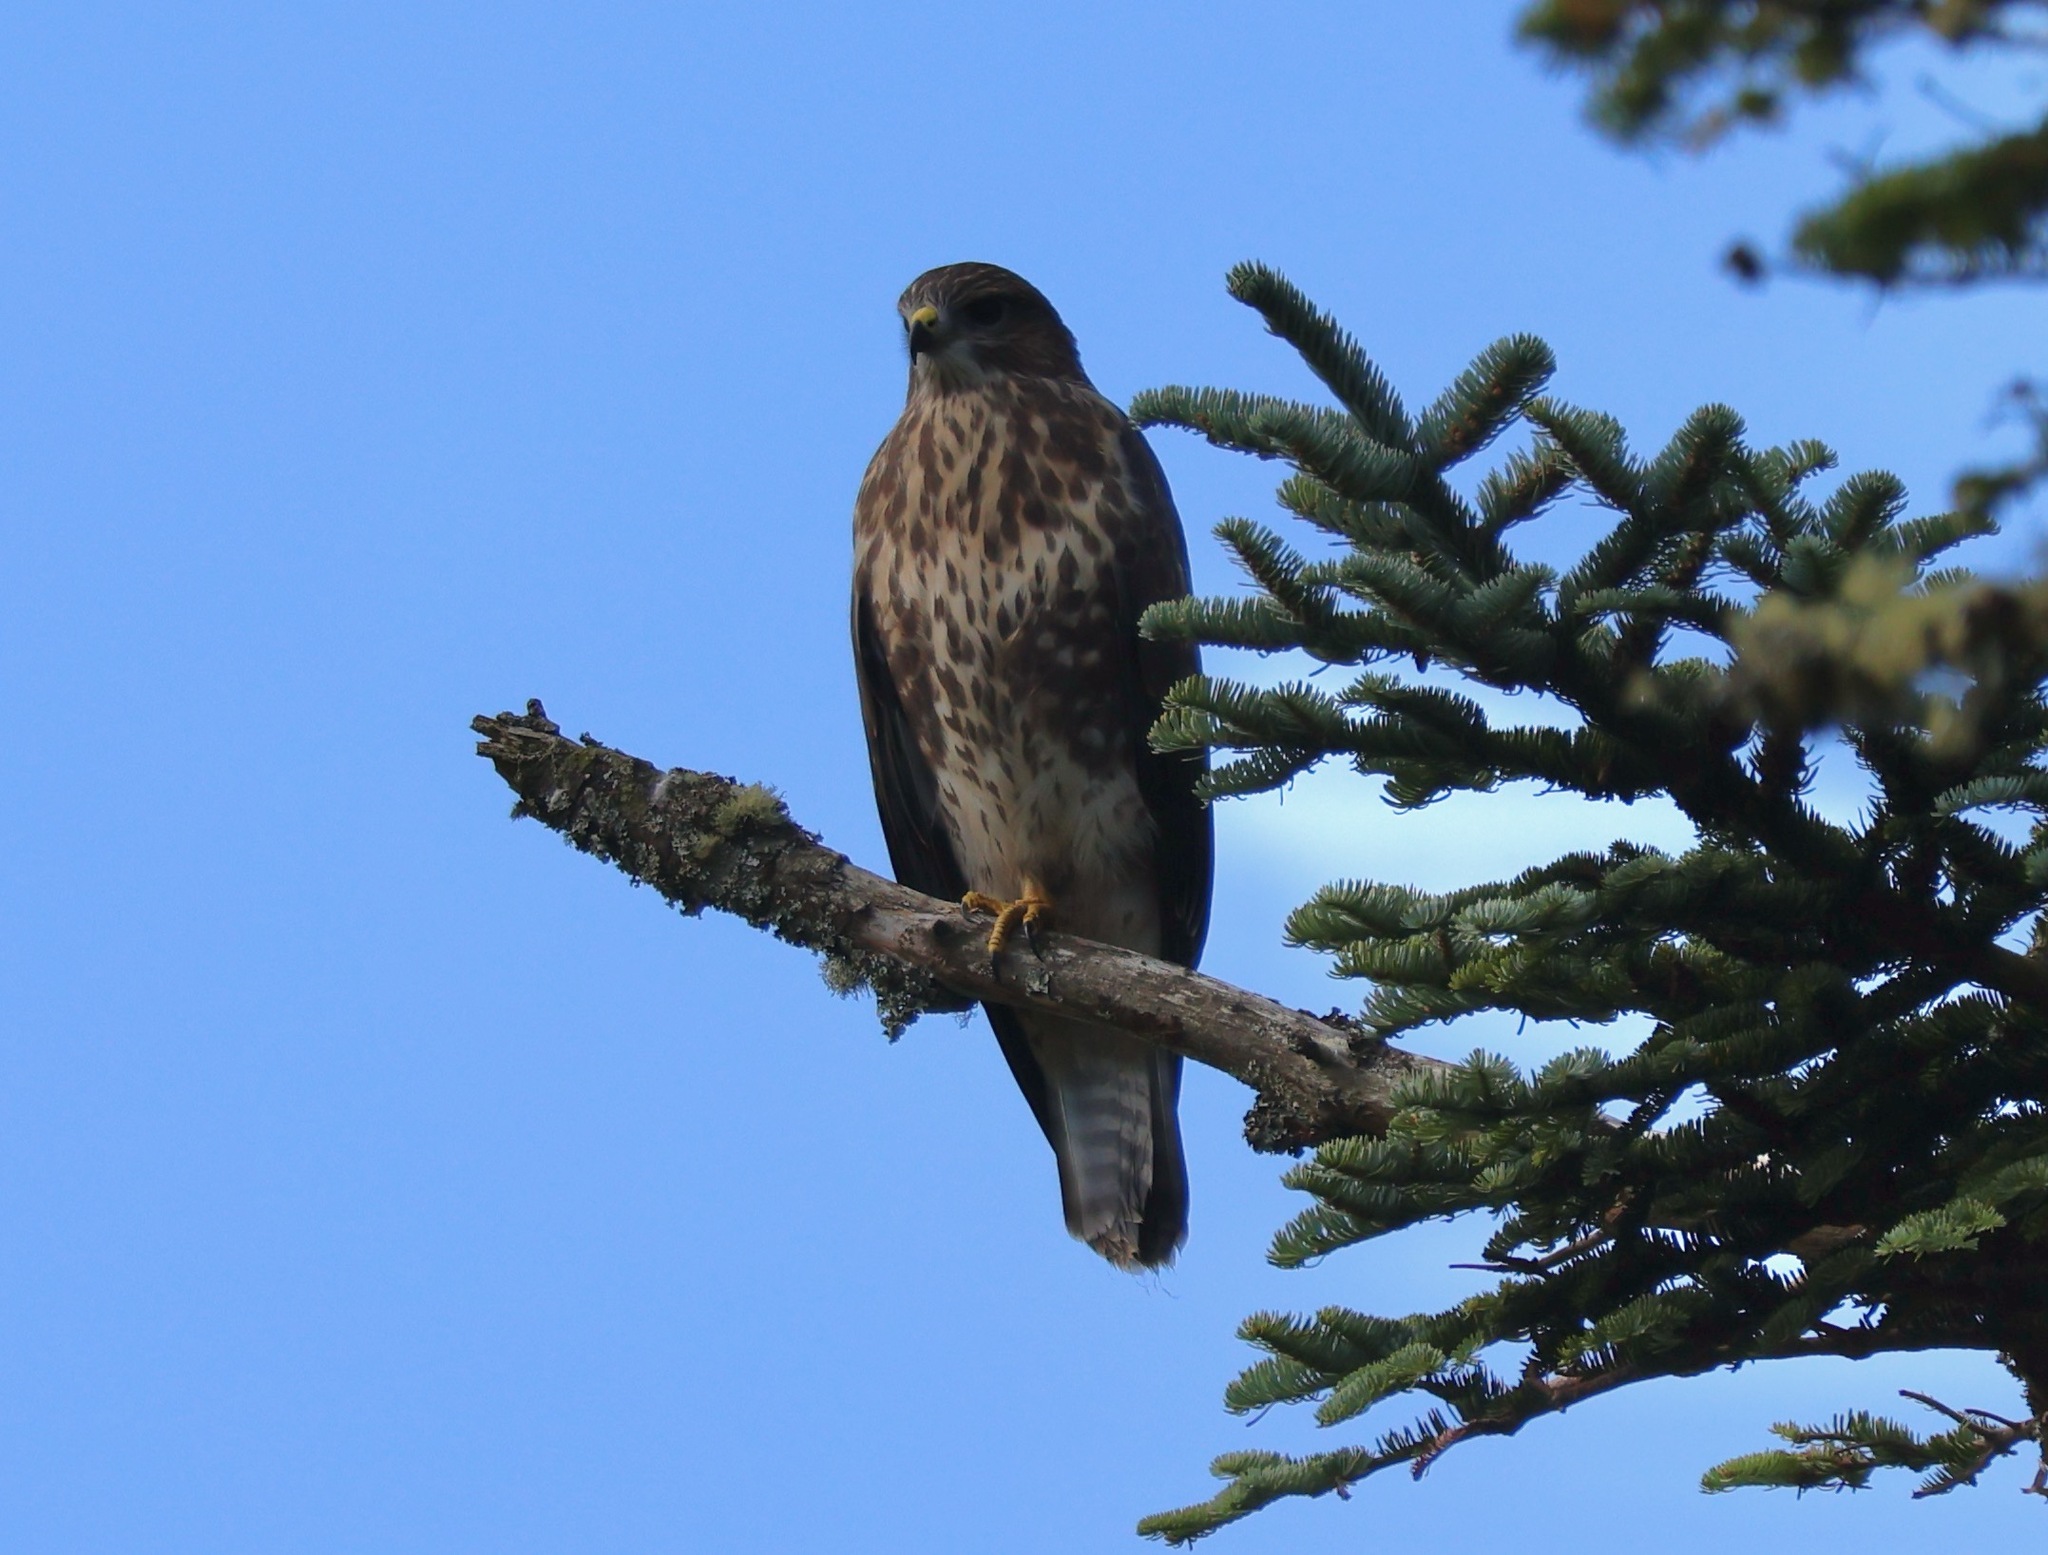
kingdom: Animalia
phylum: Chordata
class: Aves
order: Accipitriformes
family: Accipitridae
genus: Buteo
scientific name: Buteo buteo
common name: Common buzzard
